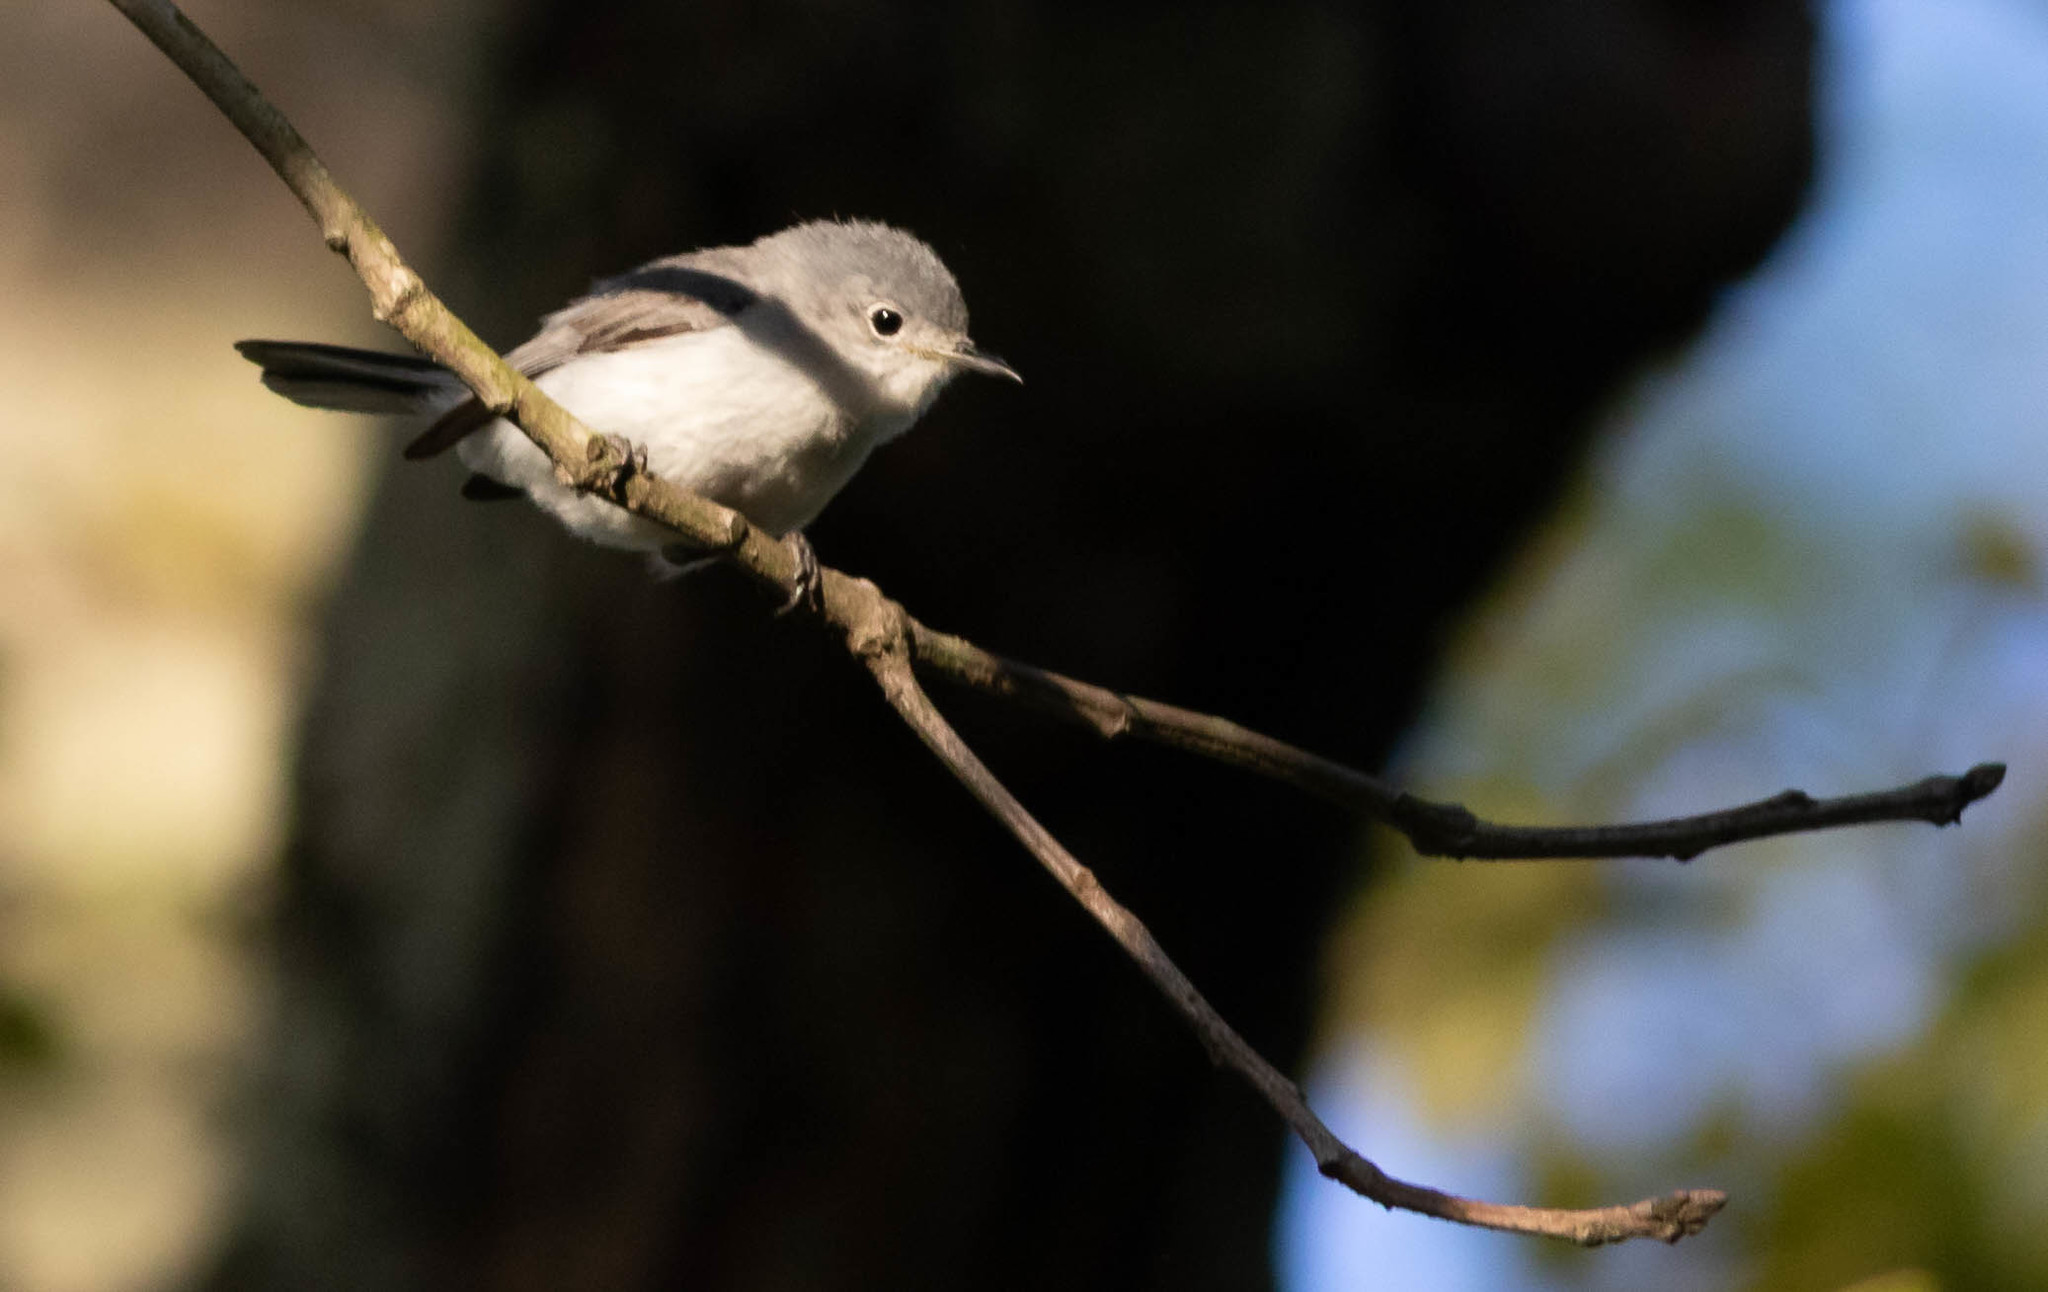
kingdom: Animalia
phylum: Chordata
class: Aves
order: Passeriformes
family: Polioptilidae
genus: Polioptila
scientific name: Polioptila caerulea
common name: Blue-gray gnatcatcher
